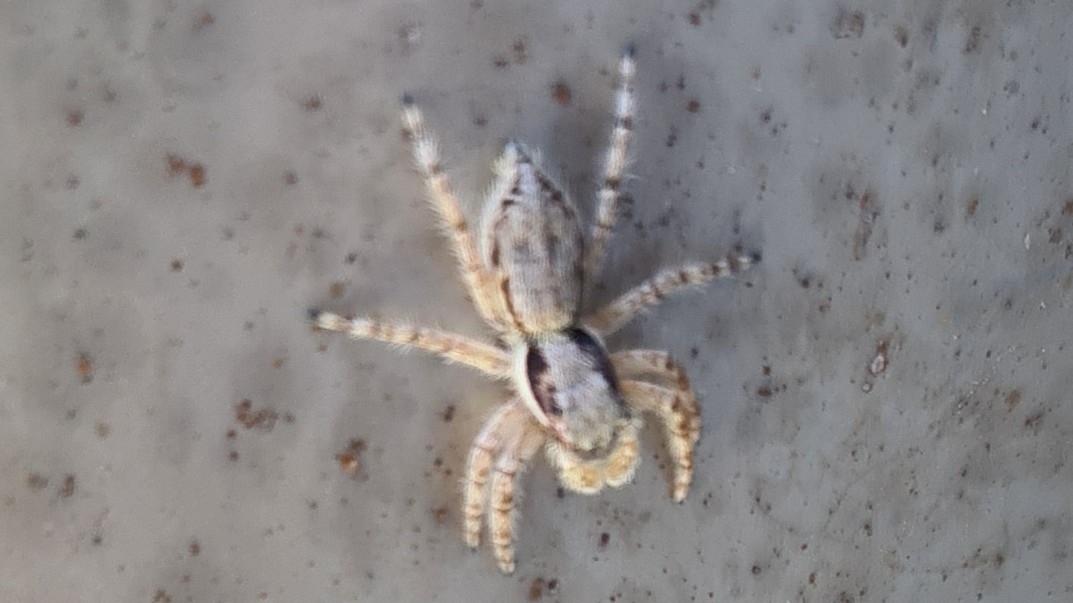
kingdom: Animalia
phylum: Arthropoda
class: Arachnida
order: Araneae
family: Salticidae
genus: Menemerus
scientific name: Menemerus bivittatus
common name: Gray wall jumper
